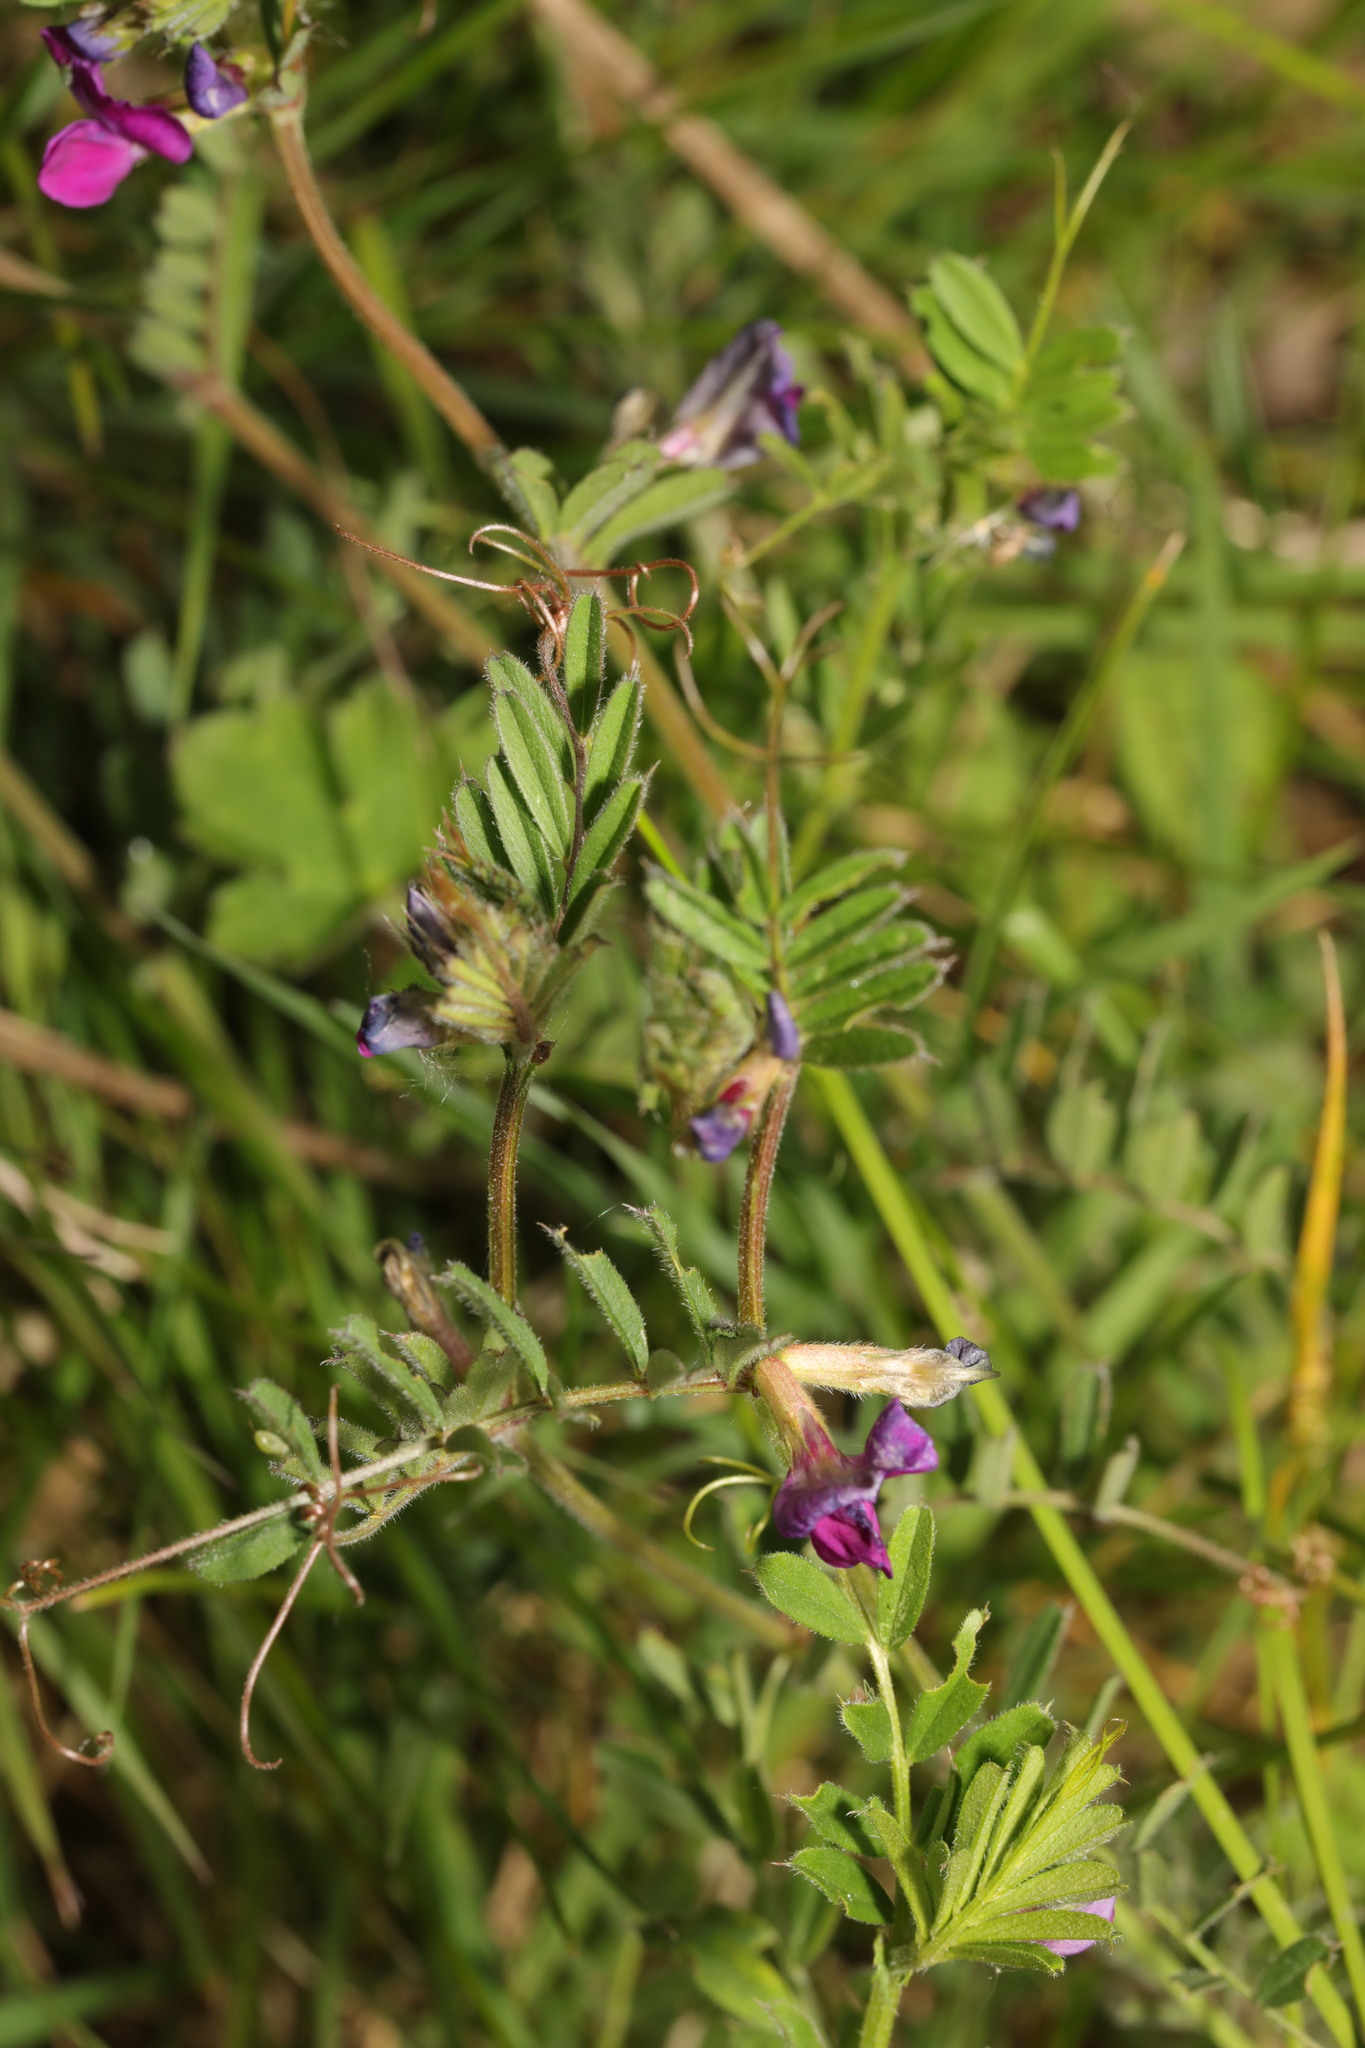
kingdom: Plantae
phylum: Tracheophyta
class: Magnoliopsida
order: Fabales
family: Fabaceae
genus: Vicia
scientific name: Vicia sativa
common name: Garden vetch
